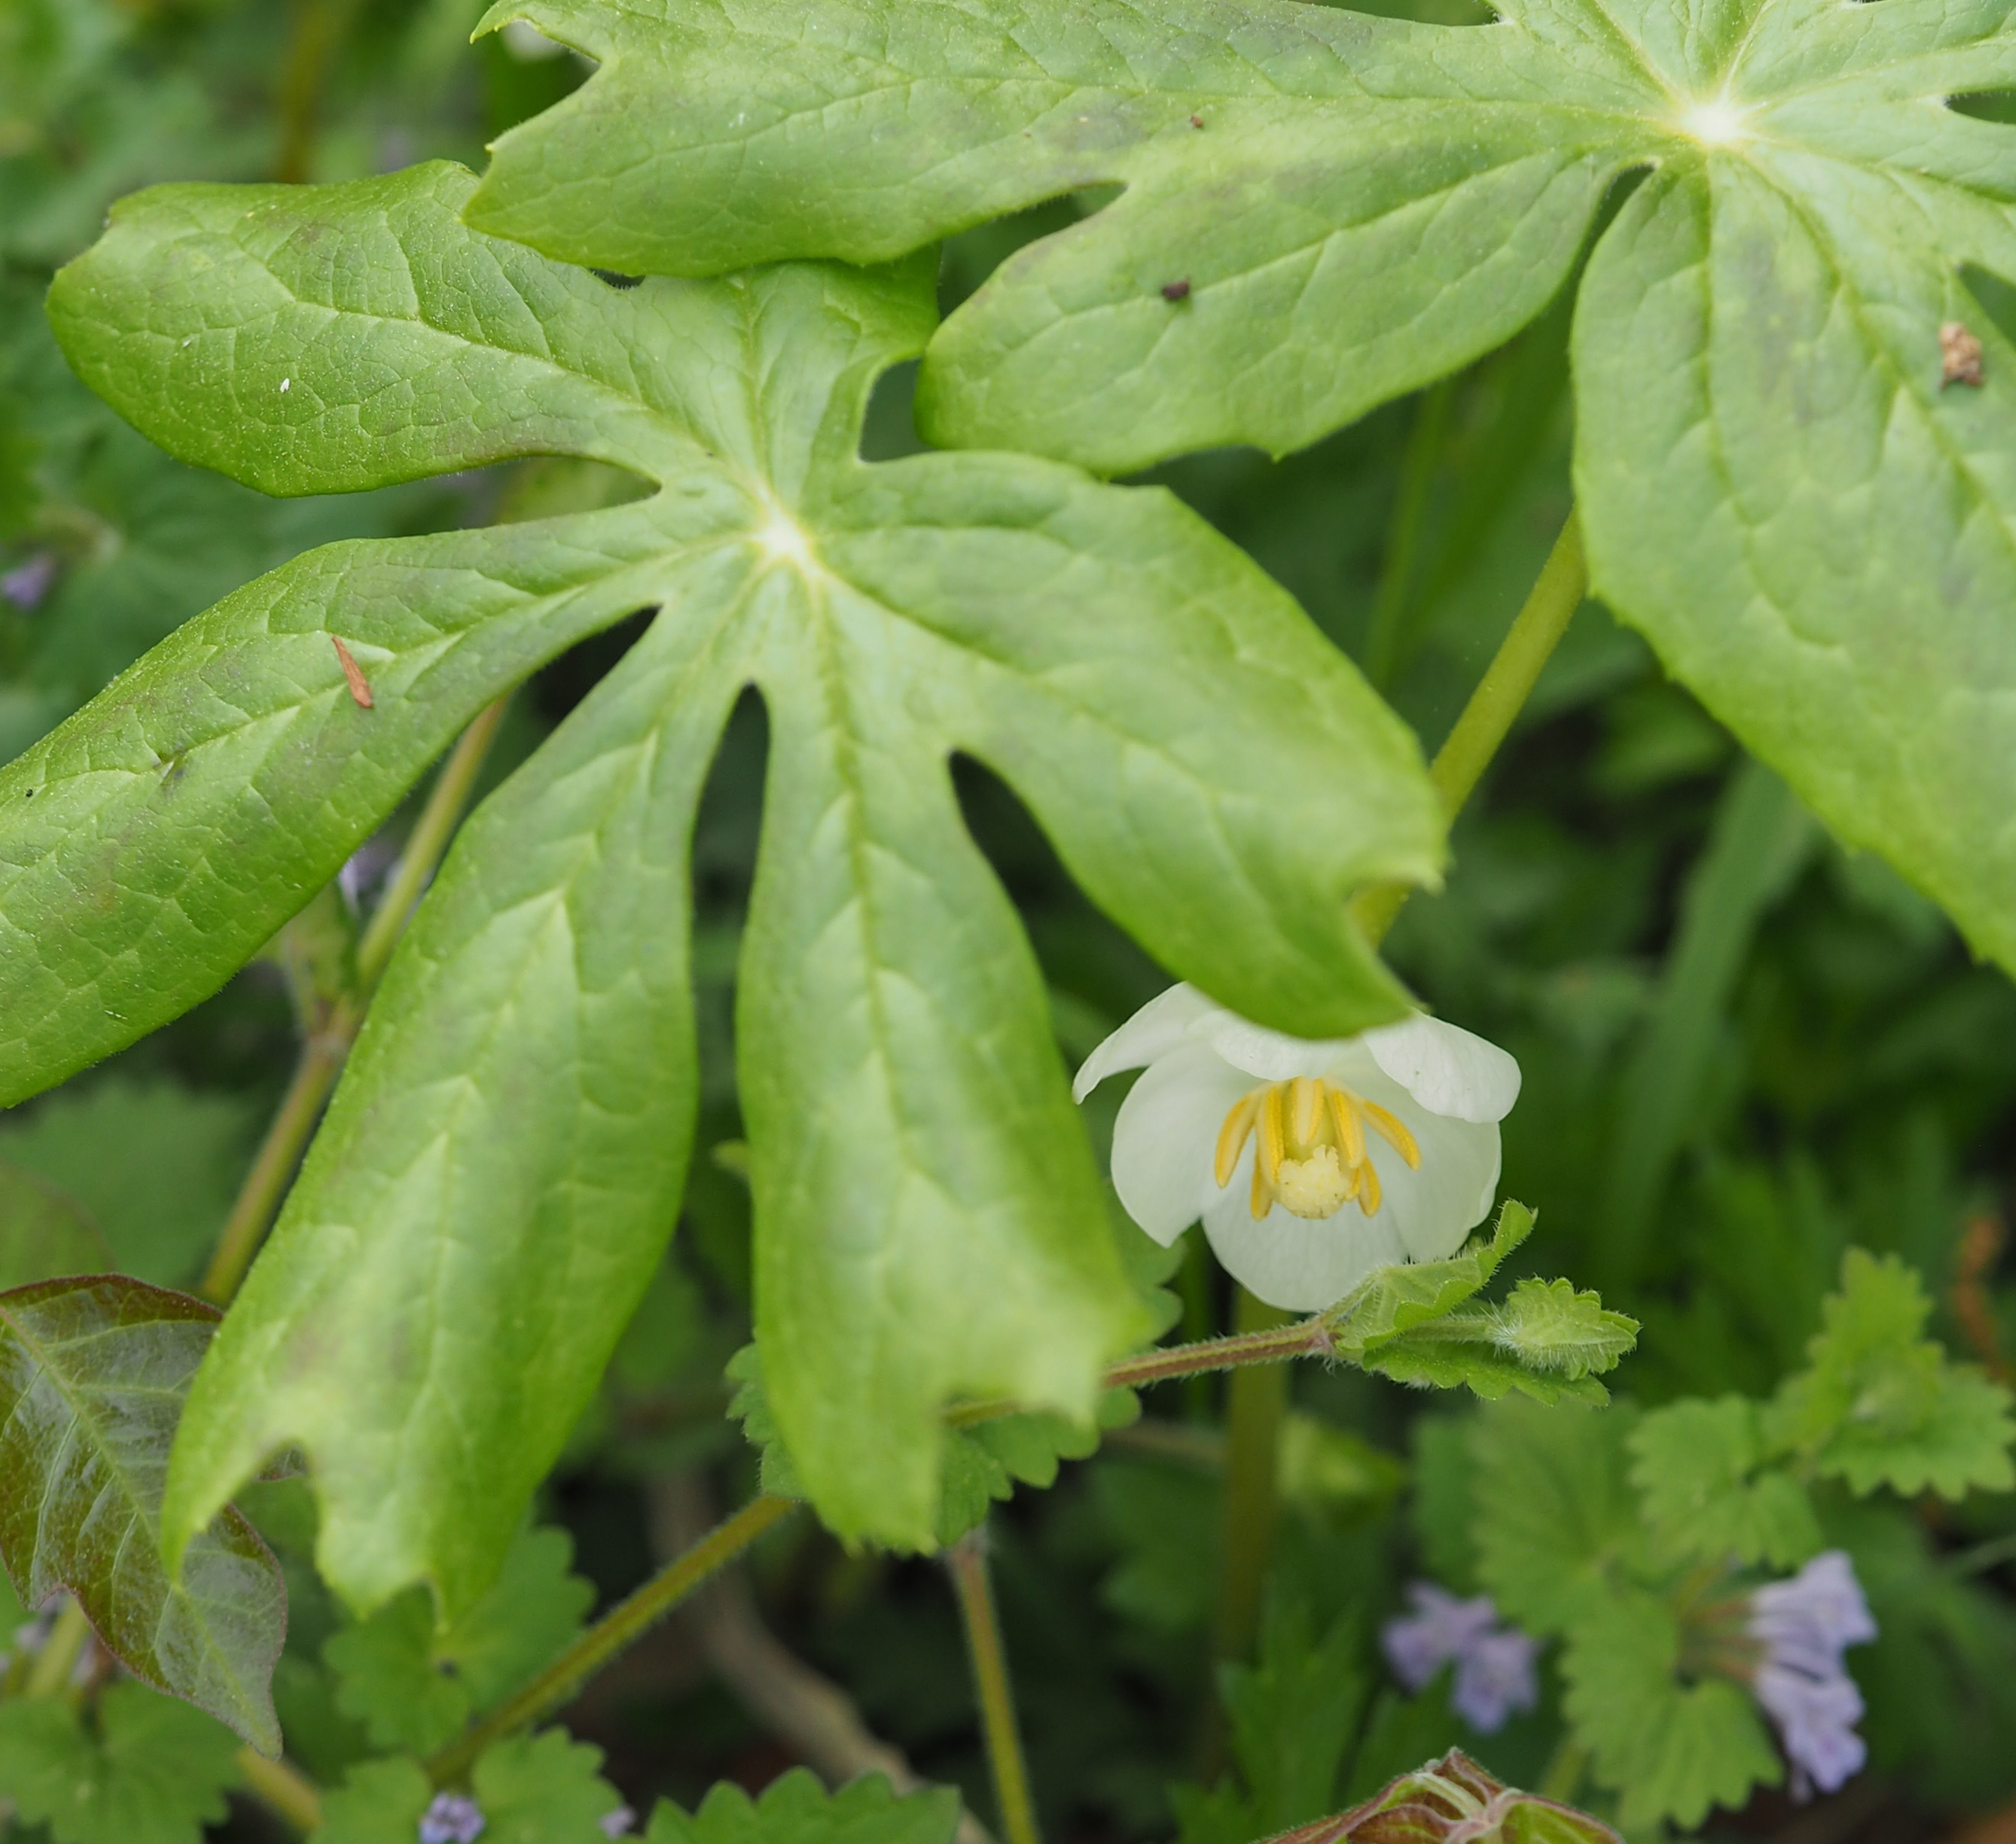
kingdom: Plantae
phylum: Tracheophyta
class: Magnoliopsida
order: Ranunculales
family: Berberidaceae
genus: Podophyllum
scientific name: Podophyllum peltatum
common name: Wild mandrake
